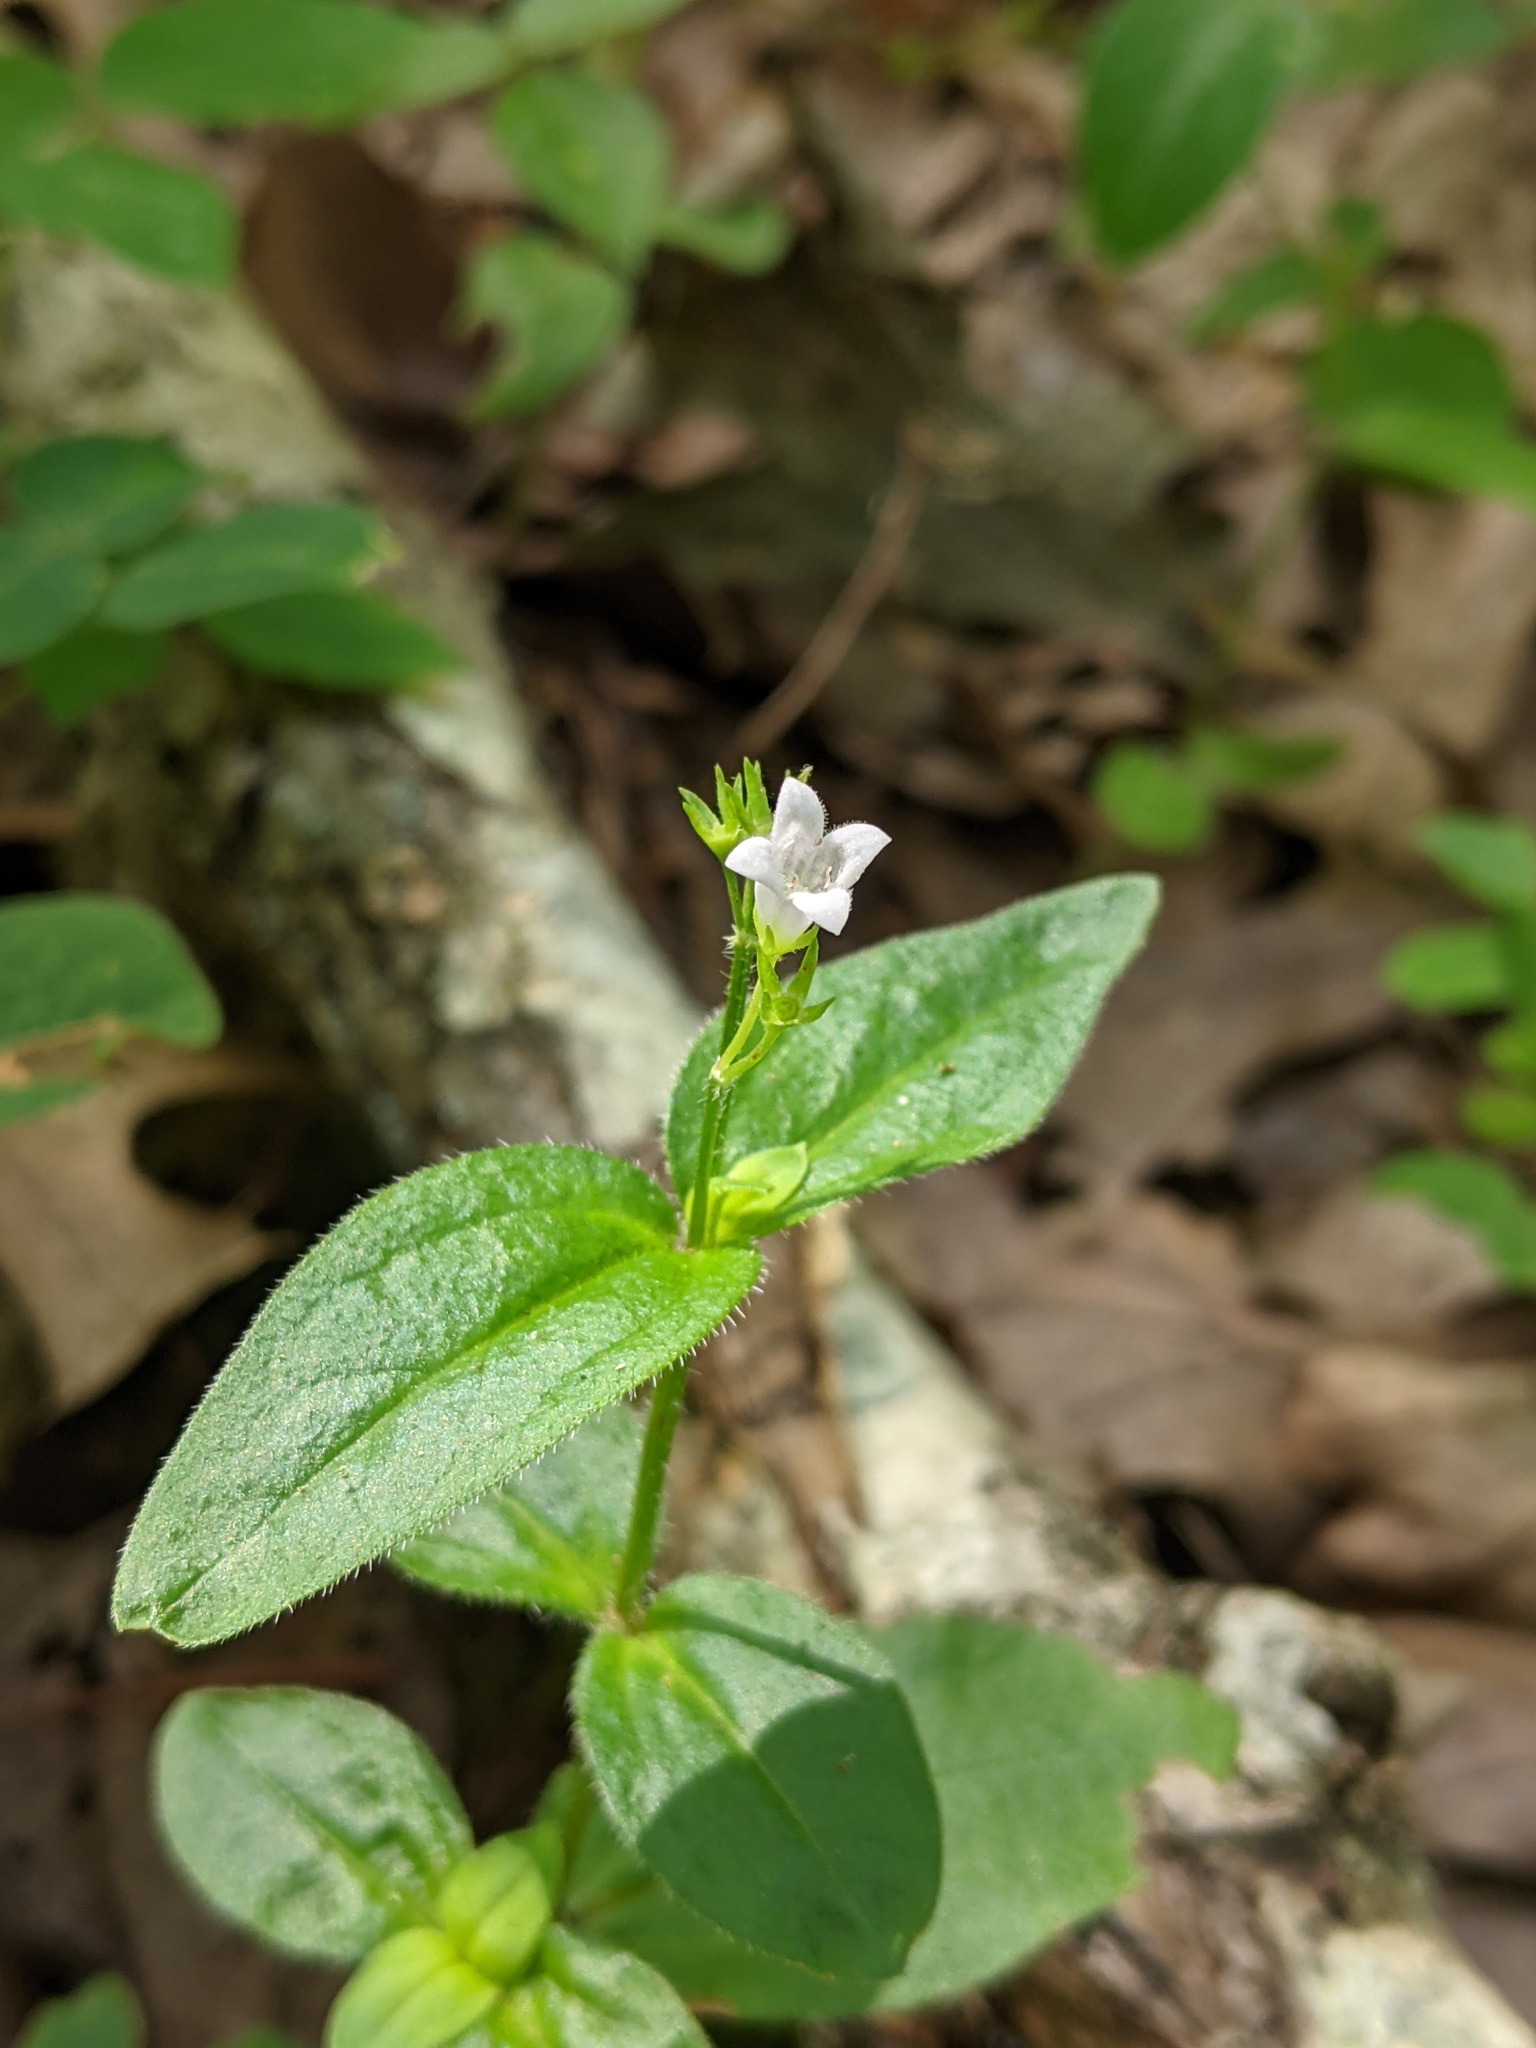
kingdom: Plantae
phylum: Tracheophyta
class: Magnoliopsida
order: Gentianales
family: Rubiaceae
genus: Houstonia
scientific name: Houstonia purpurea
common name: Summer bluet
